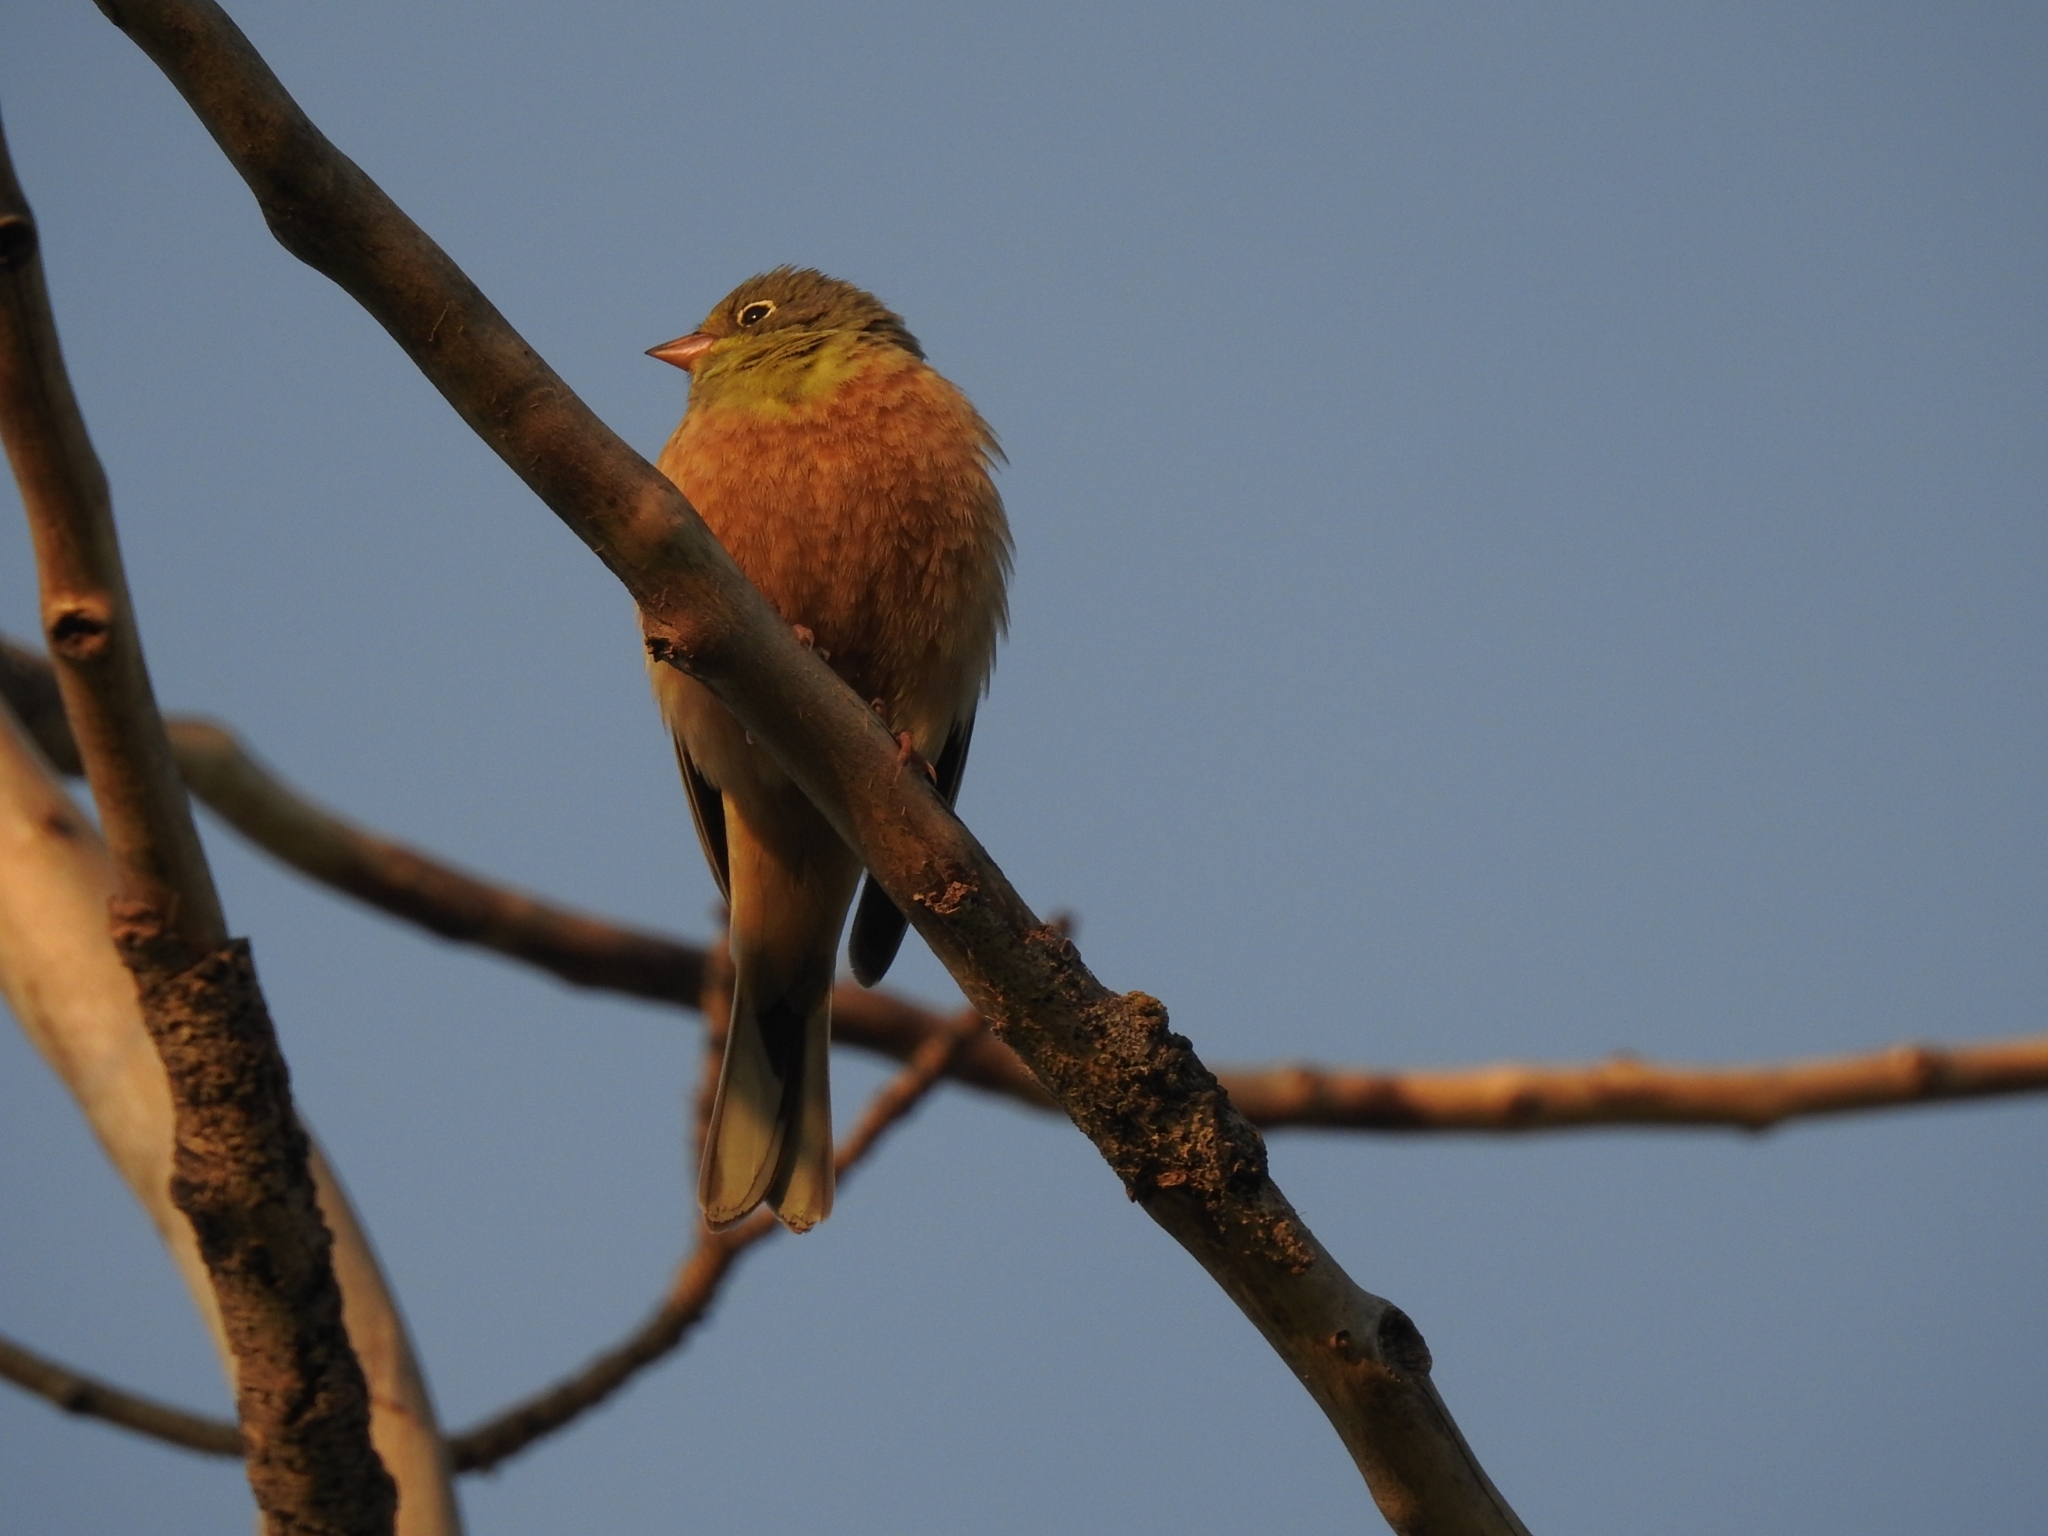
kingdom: Animalia
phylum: Chordata
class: Aves
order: Passeriformes
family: Emberizidae
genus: Emberiza
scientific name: Emberiza hortulana
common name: Ortolan bunting
